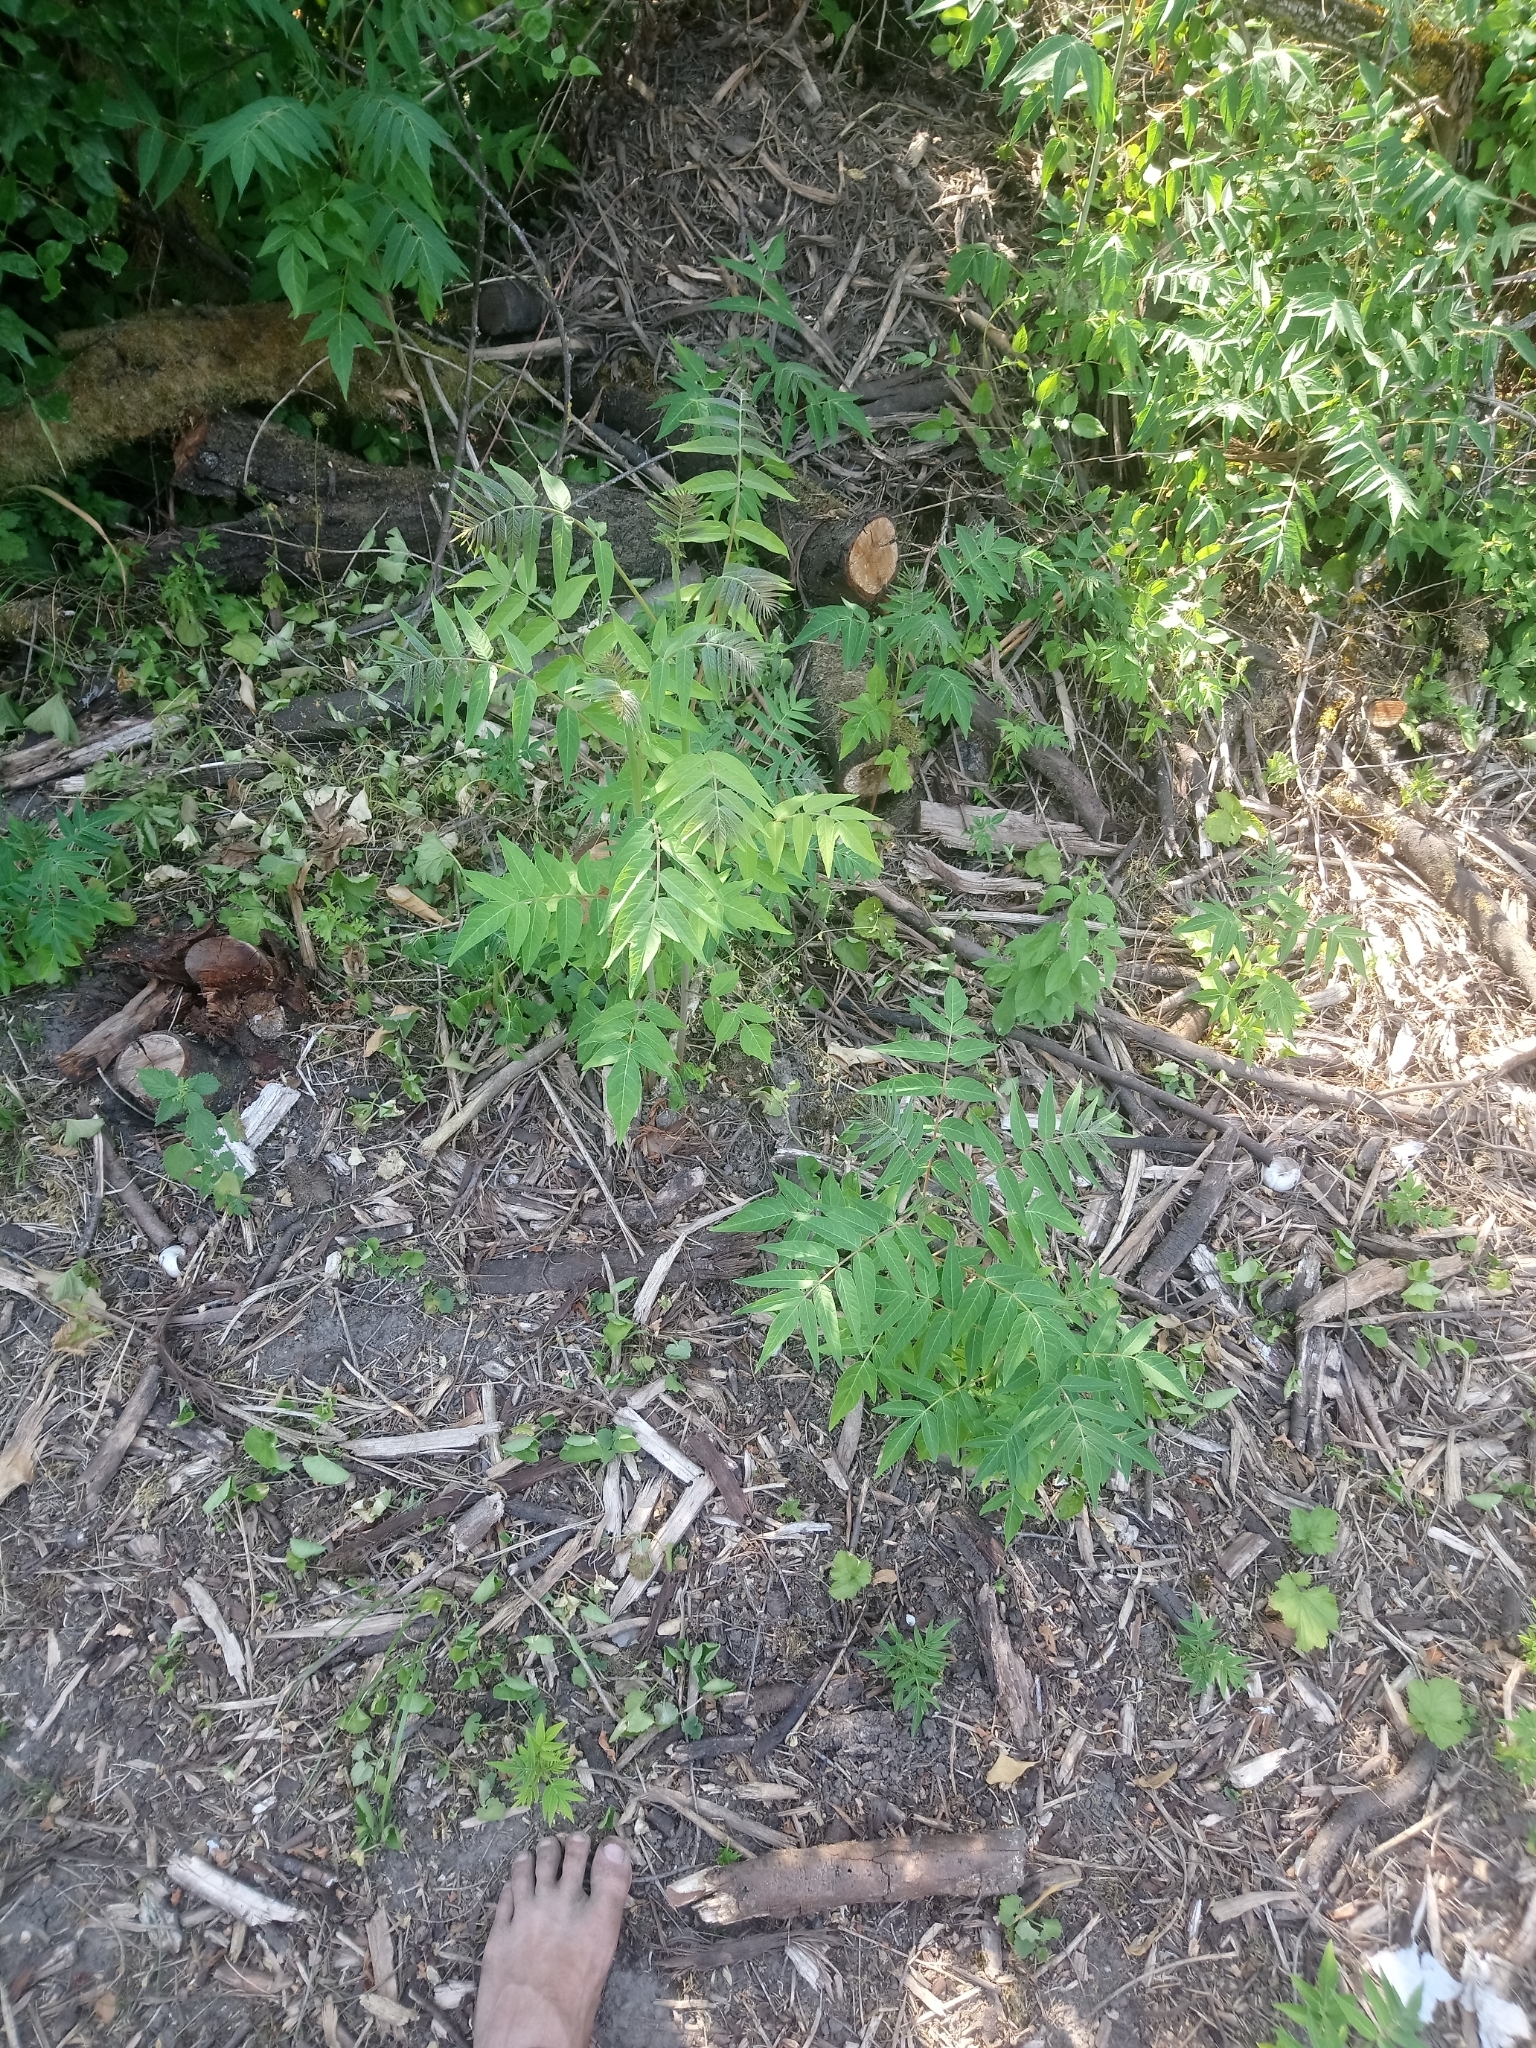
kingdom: Plantae
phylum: Tracheophyta
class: Magnoliopsida
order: Sapindales
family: Simaroubaceae
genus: Ailanthus
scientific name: Ailanthus altissima
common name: Tree-of-heaven
